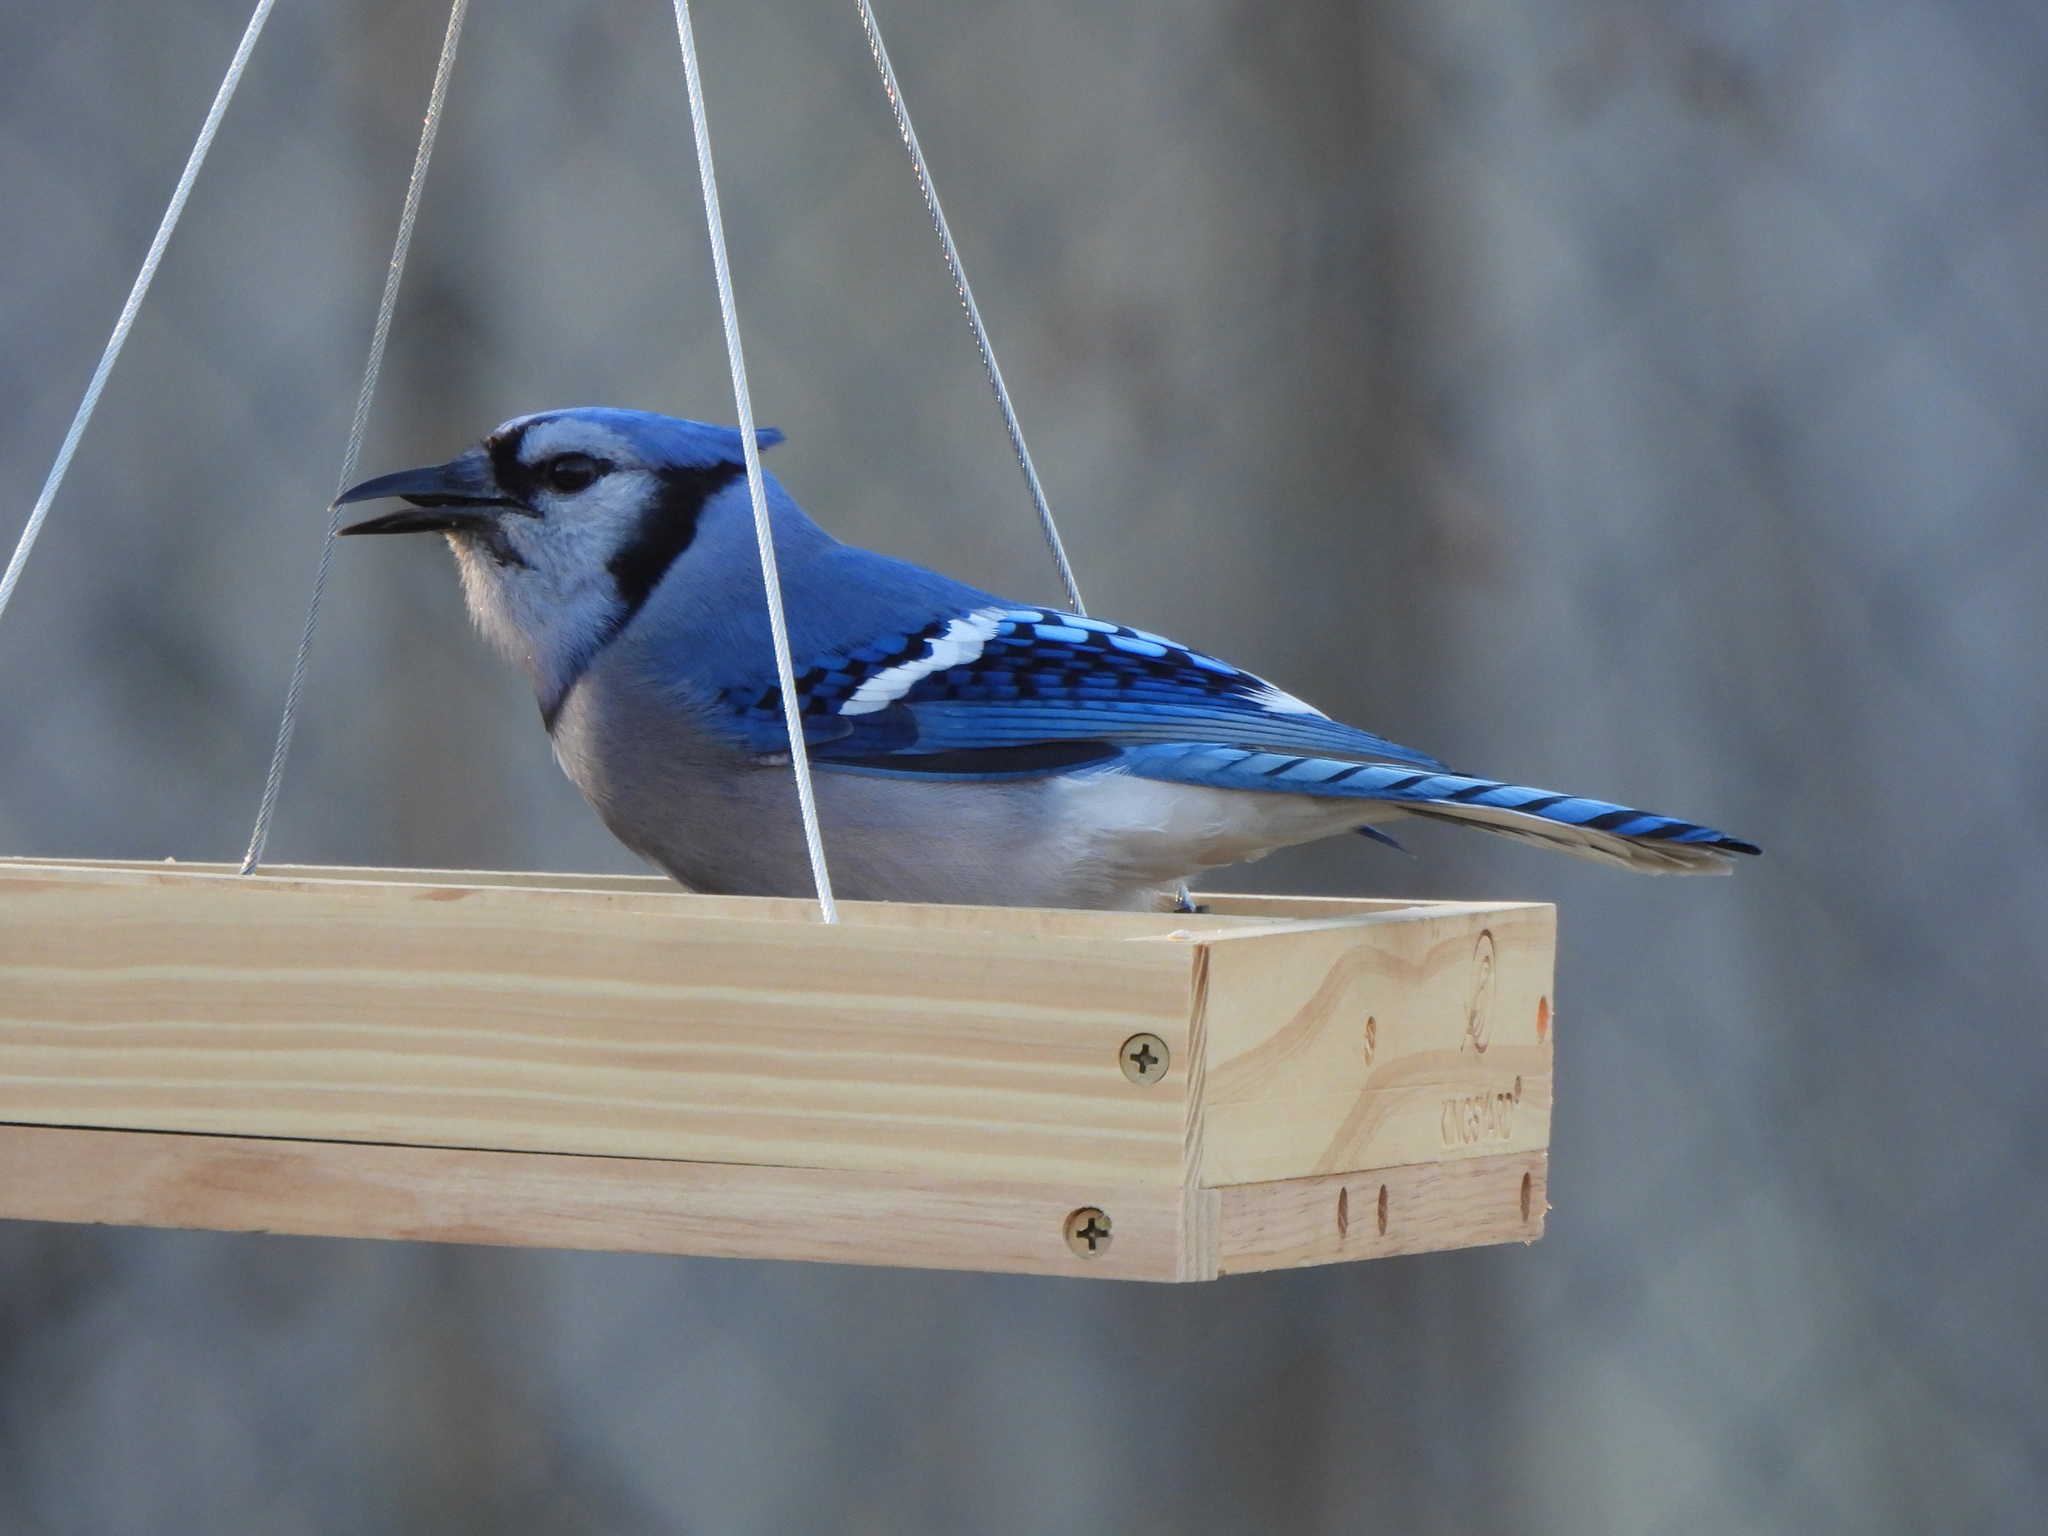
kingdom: Animalia
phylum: Chordata
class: Aves
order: Passeriformes
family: Corvidae
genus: Cyanocitta
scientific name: Cyanocitta cristata
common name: Blue jay
